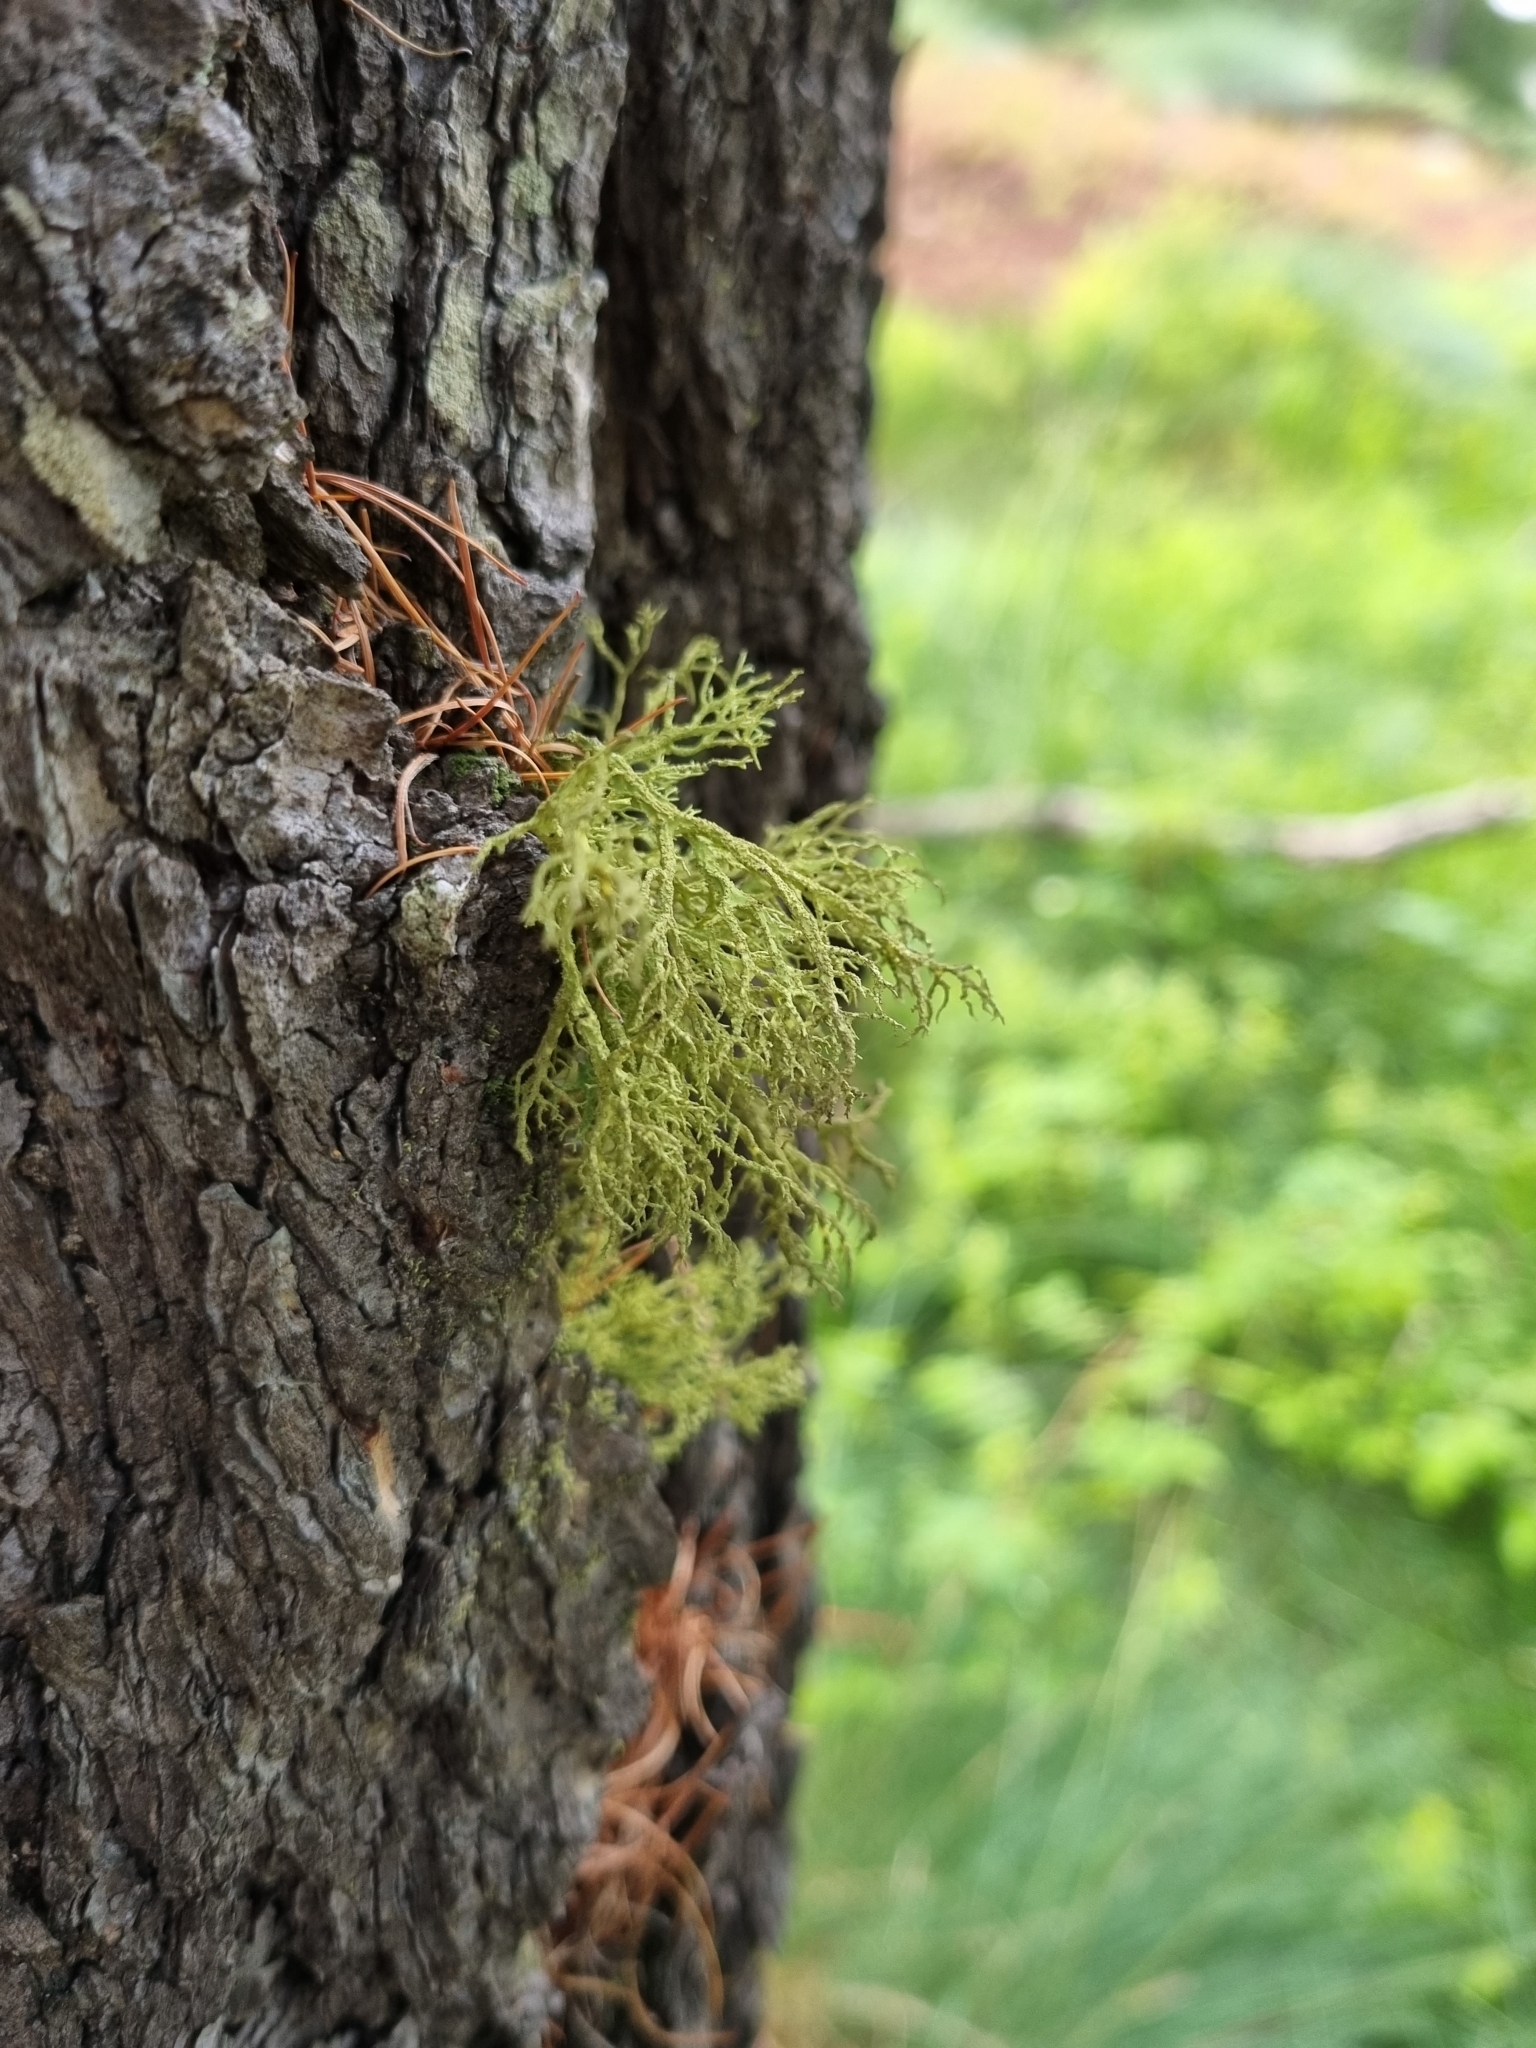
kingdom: Fungi
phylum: Ascomycota
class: Lecanoromycetes
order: Lecanorales
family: Parmeliaceae
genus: Letharia
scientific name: Letharia vulpina
